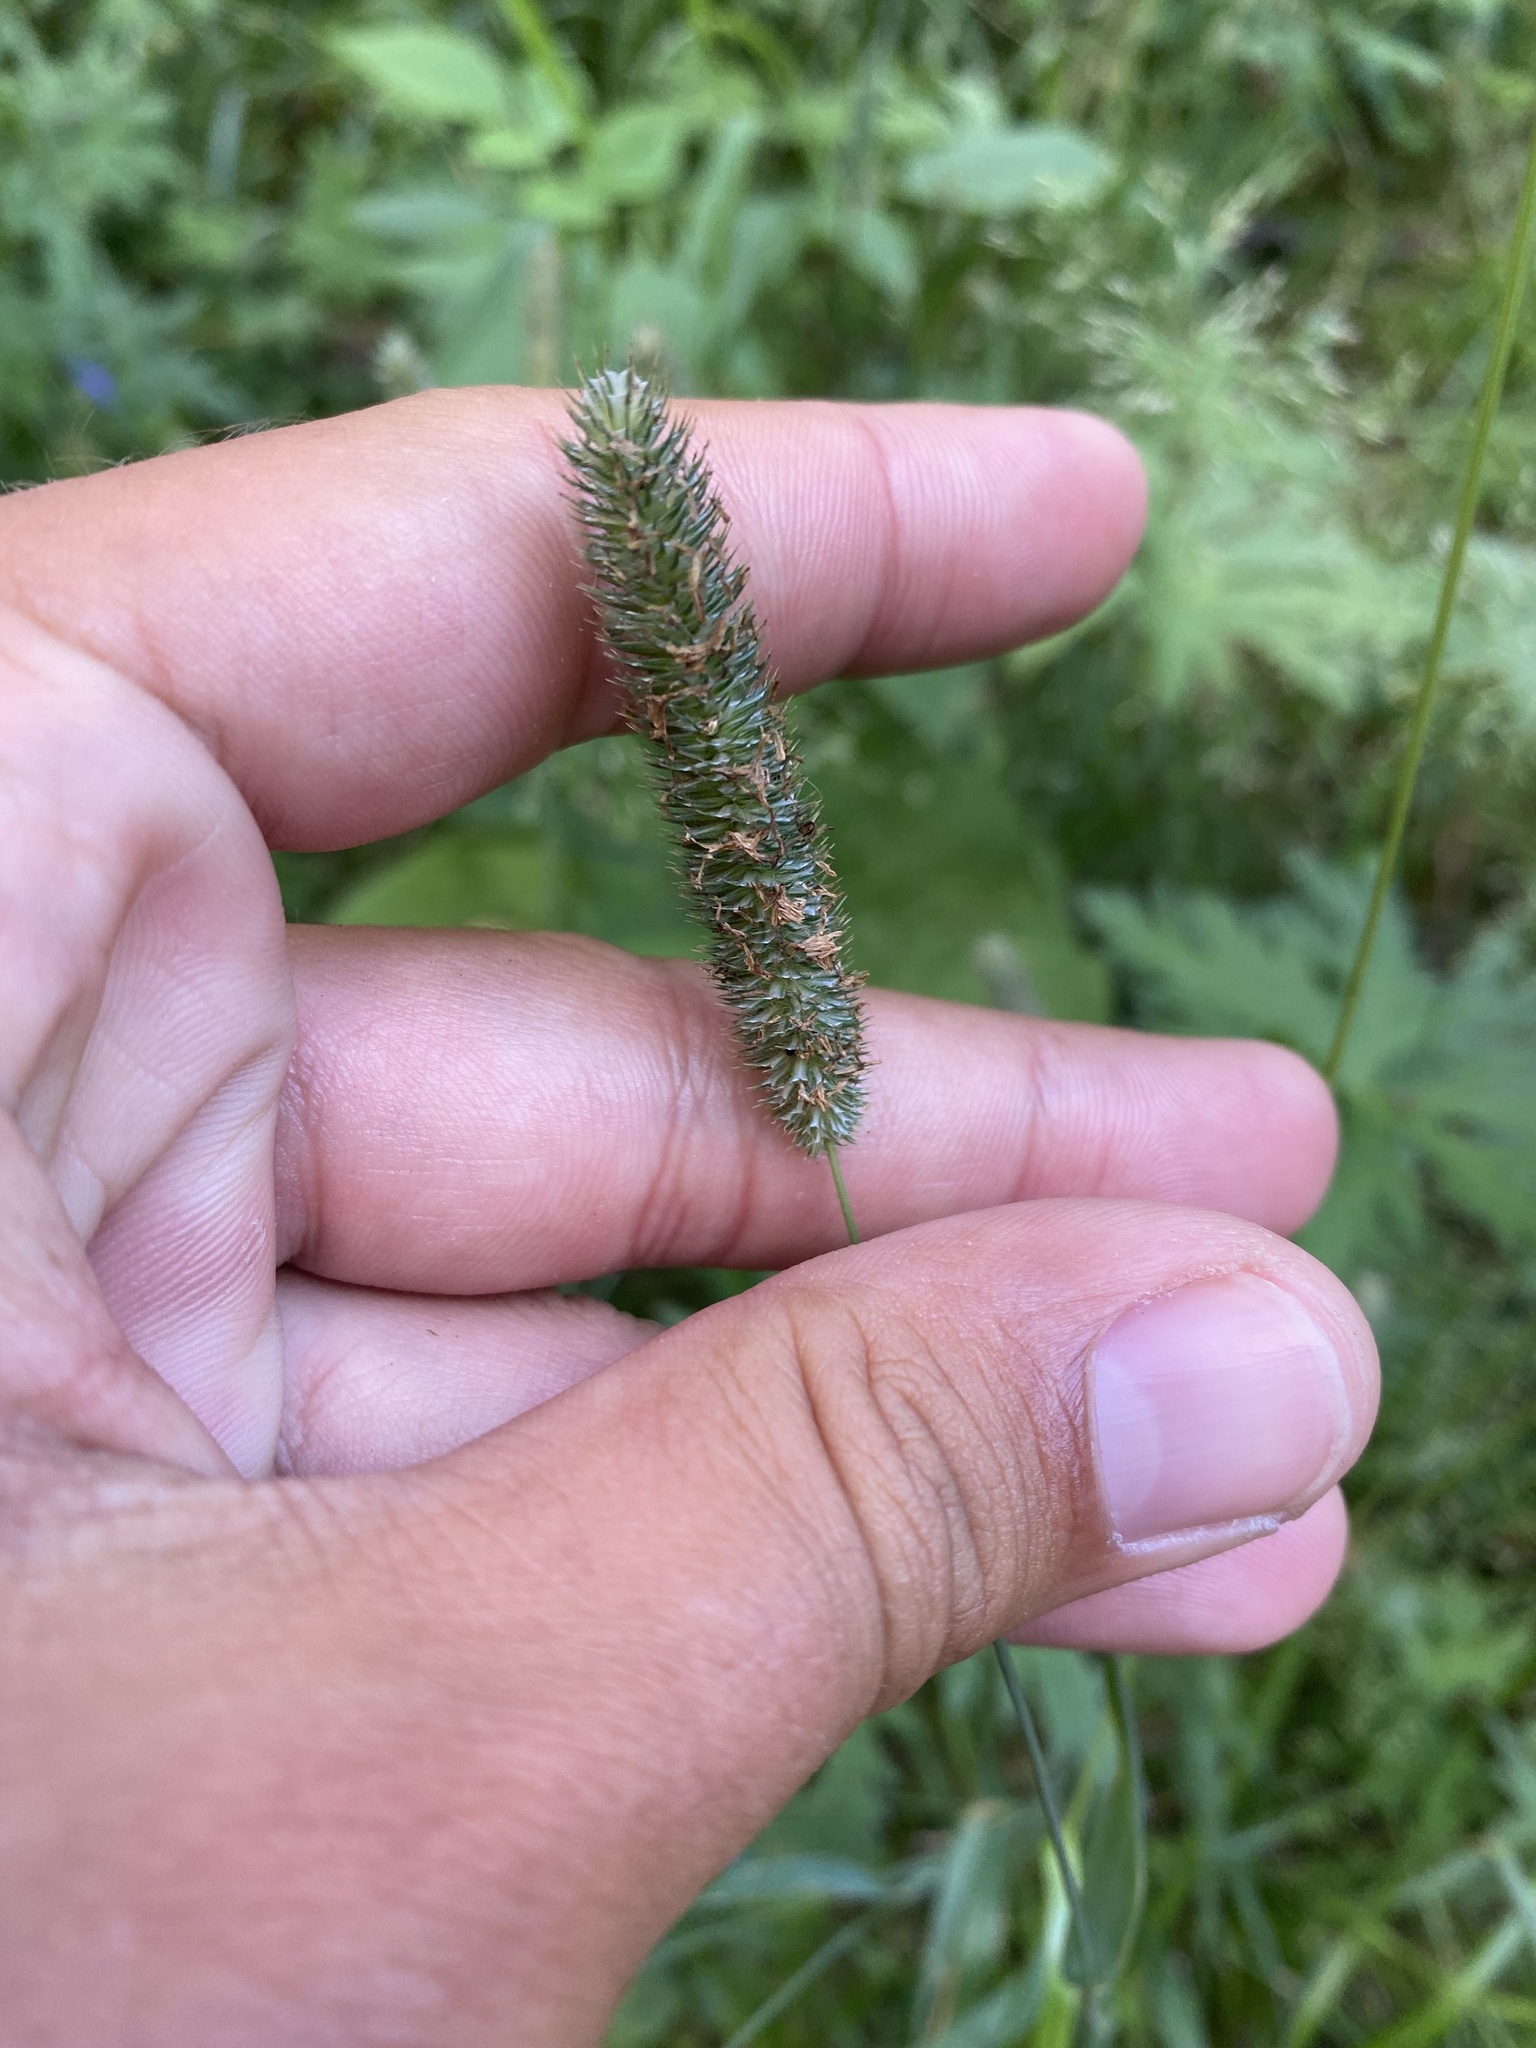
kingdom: Plantae
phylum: Tracheophyta
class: Liliopsida
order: Poales
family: Poaceae
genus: Phleum
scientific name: Phleum pratense
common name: Timothy grass
